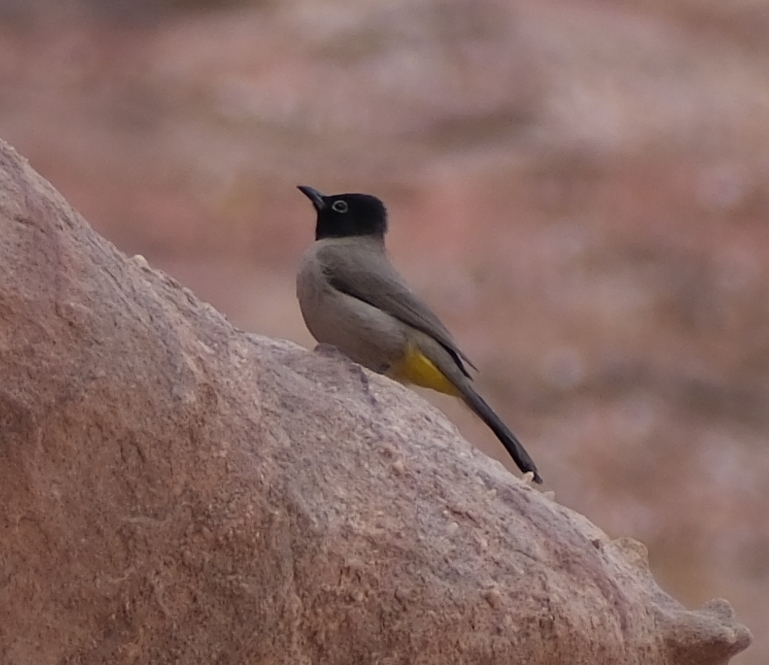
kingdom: Animalia
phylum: Chordata
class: Aves
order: Passeriformes
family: Pycnonotidae
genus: Pycnonotus
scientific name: Pycnonotus xanthopygos
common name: White-spectacled bulbul
